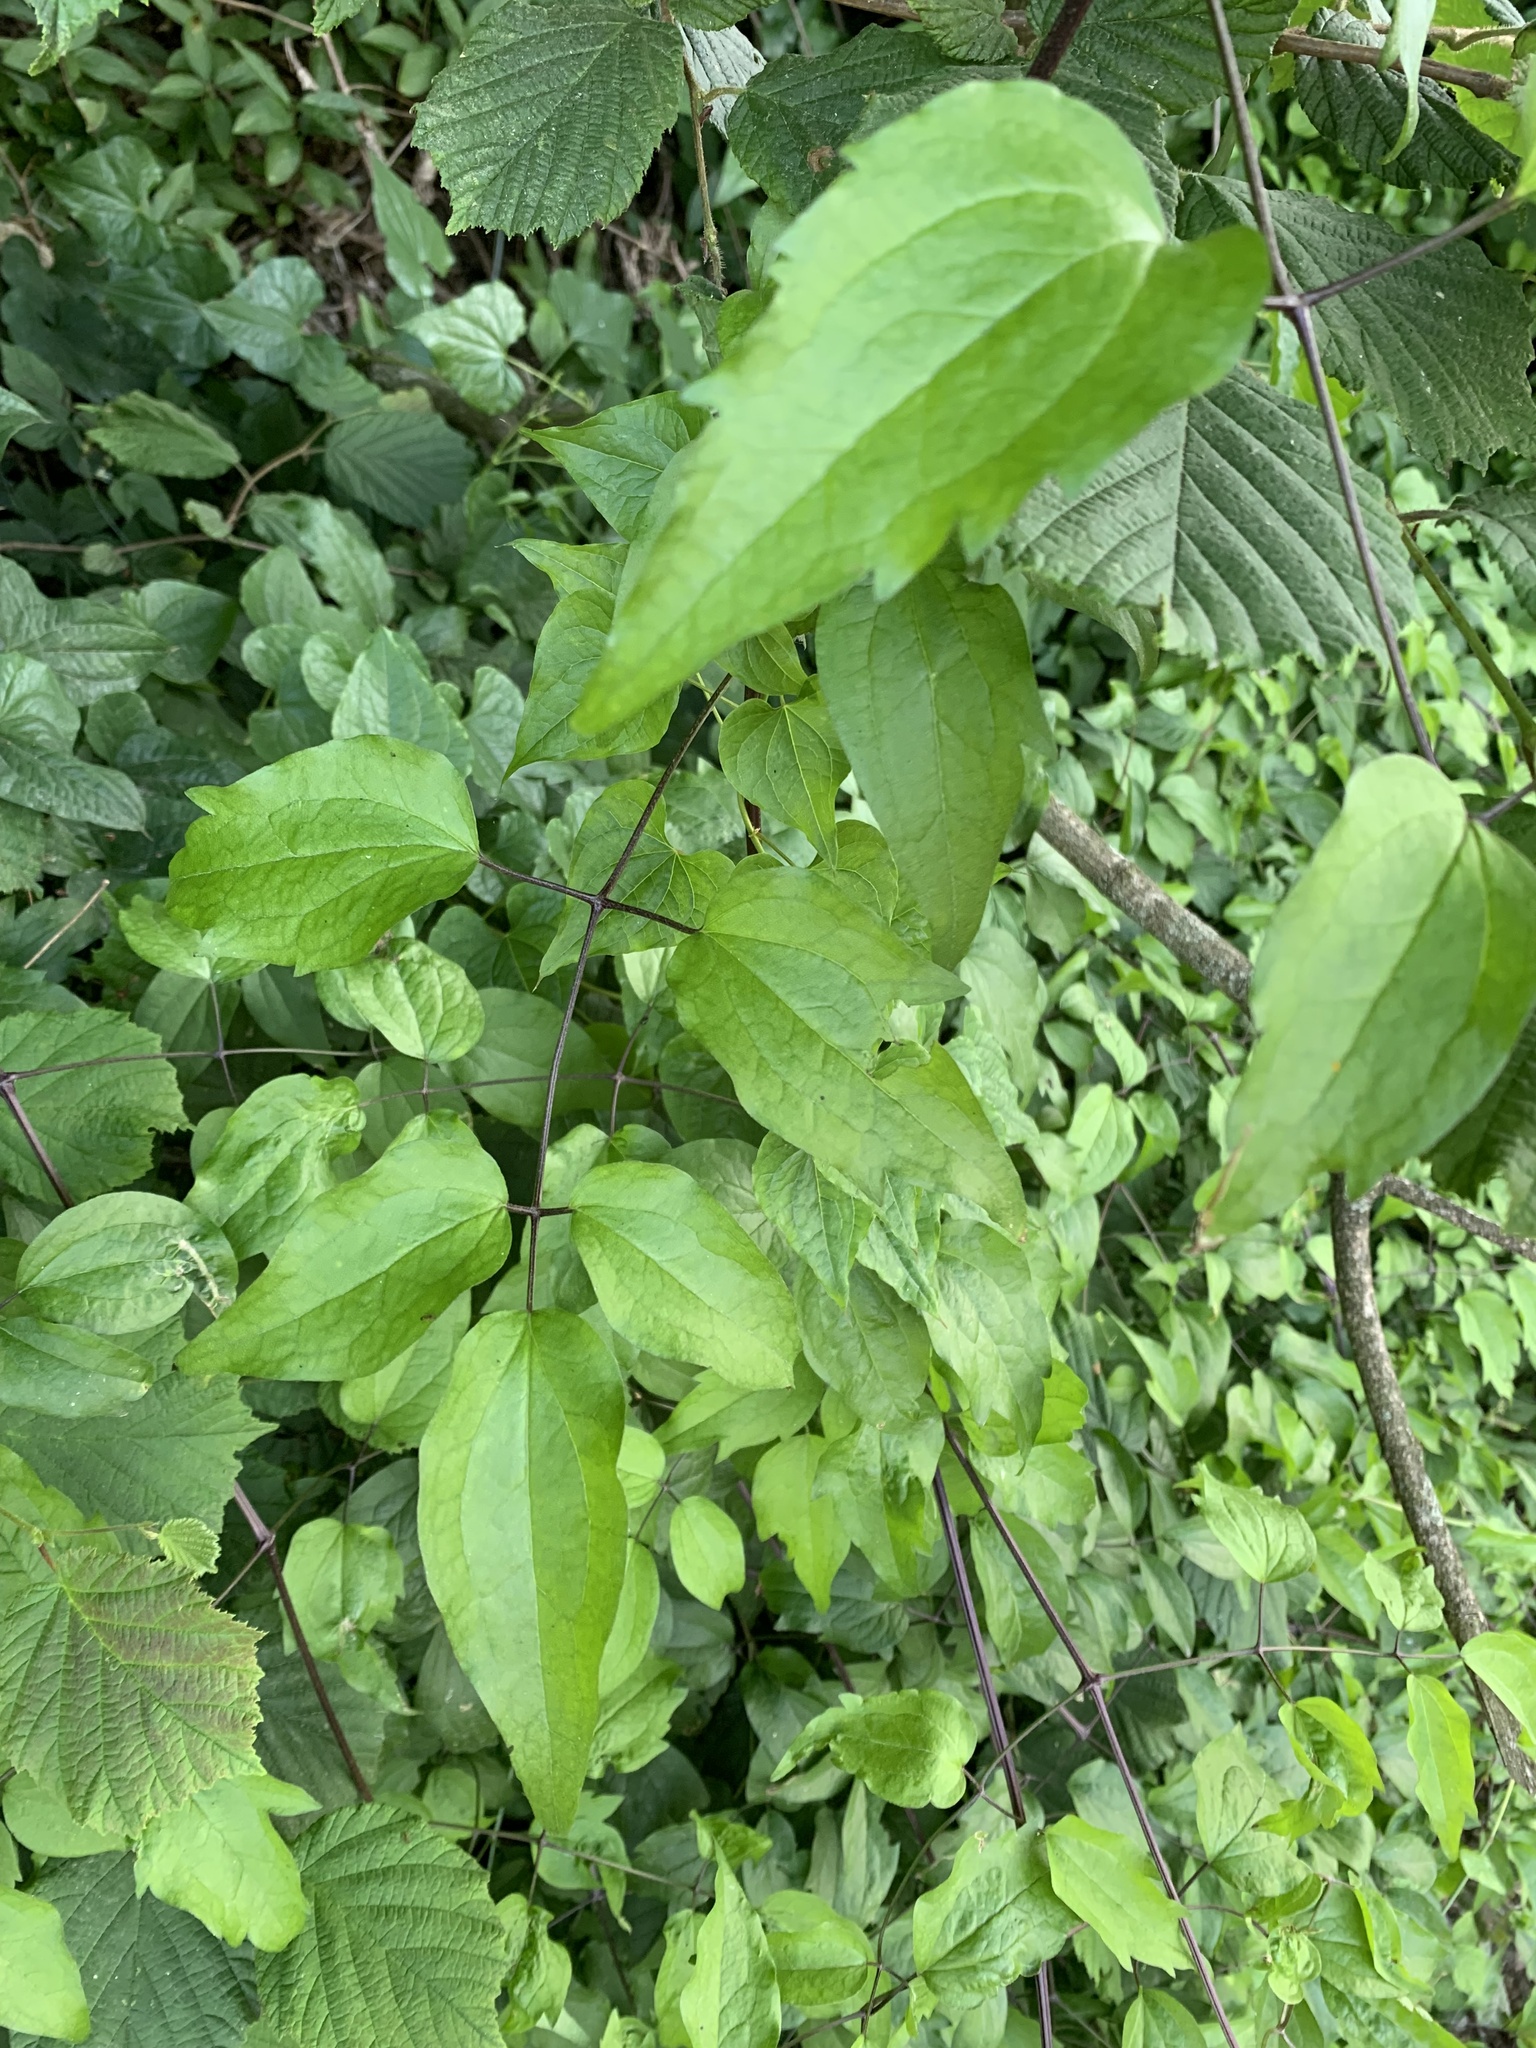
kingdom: Plantae
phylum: Tracheophyta
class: Magnoliopsida
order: Ranunculales
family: Ranunculaceae
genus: Clematis
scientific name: Clematis vitalba
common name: Evergreen clematis
